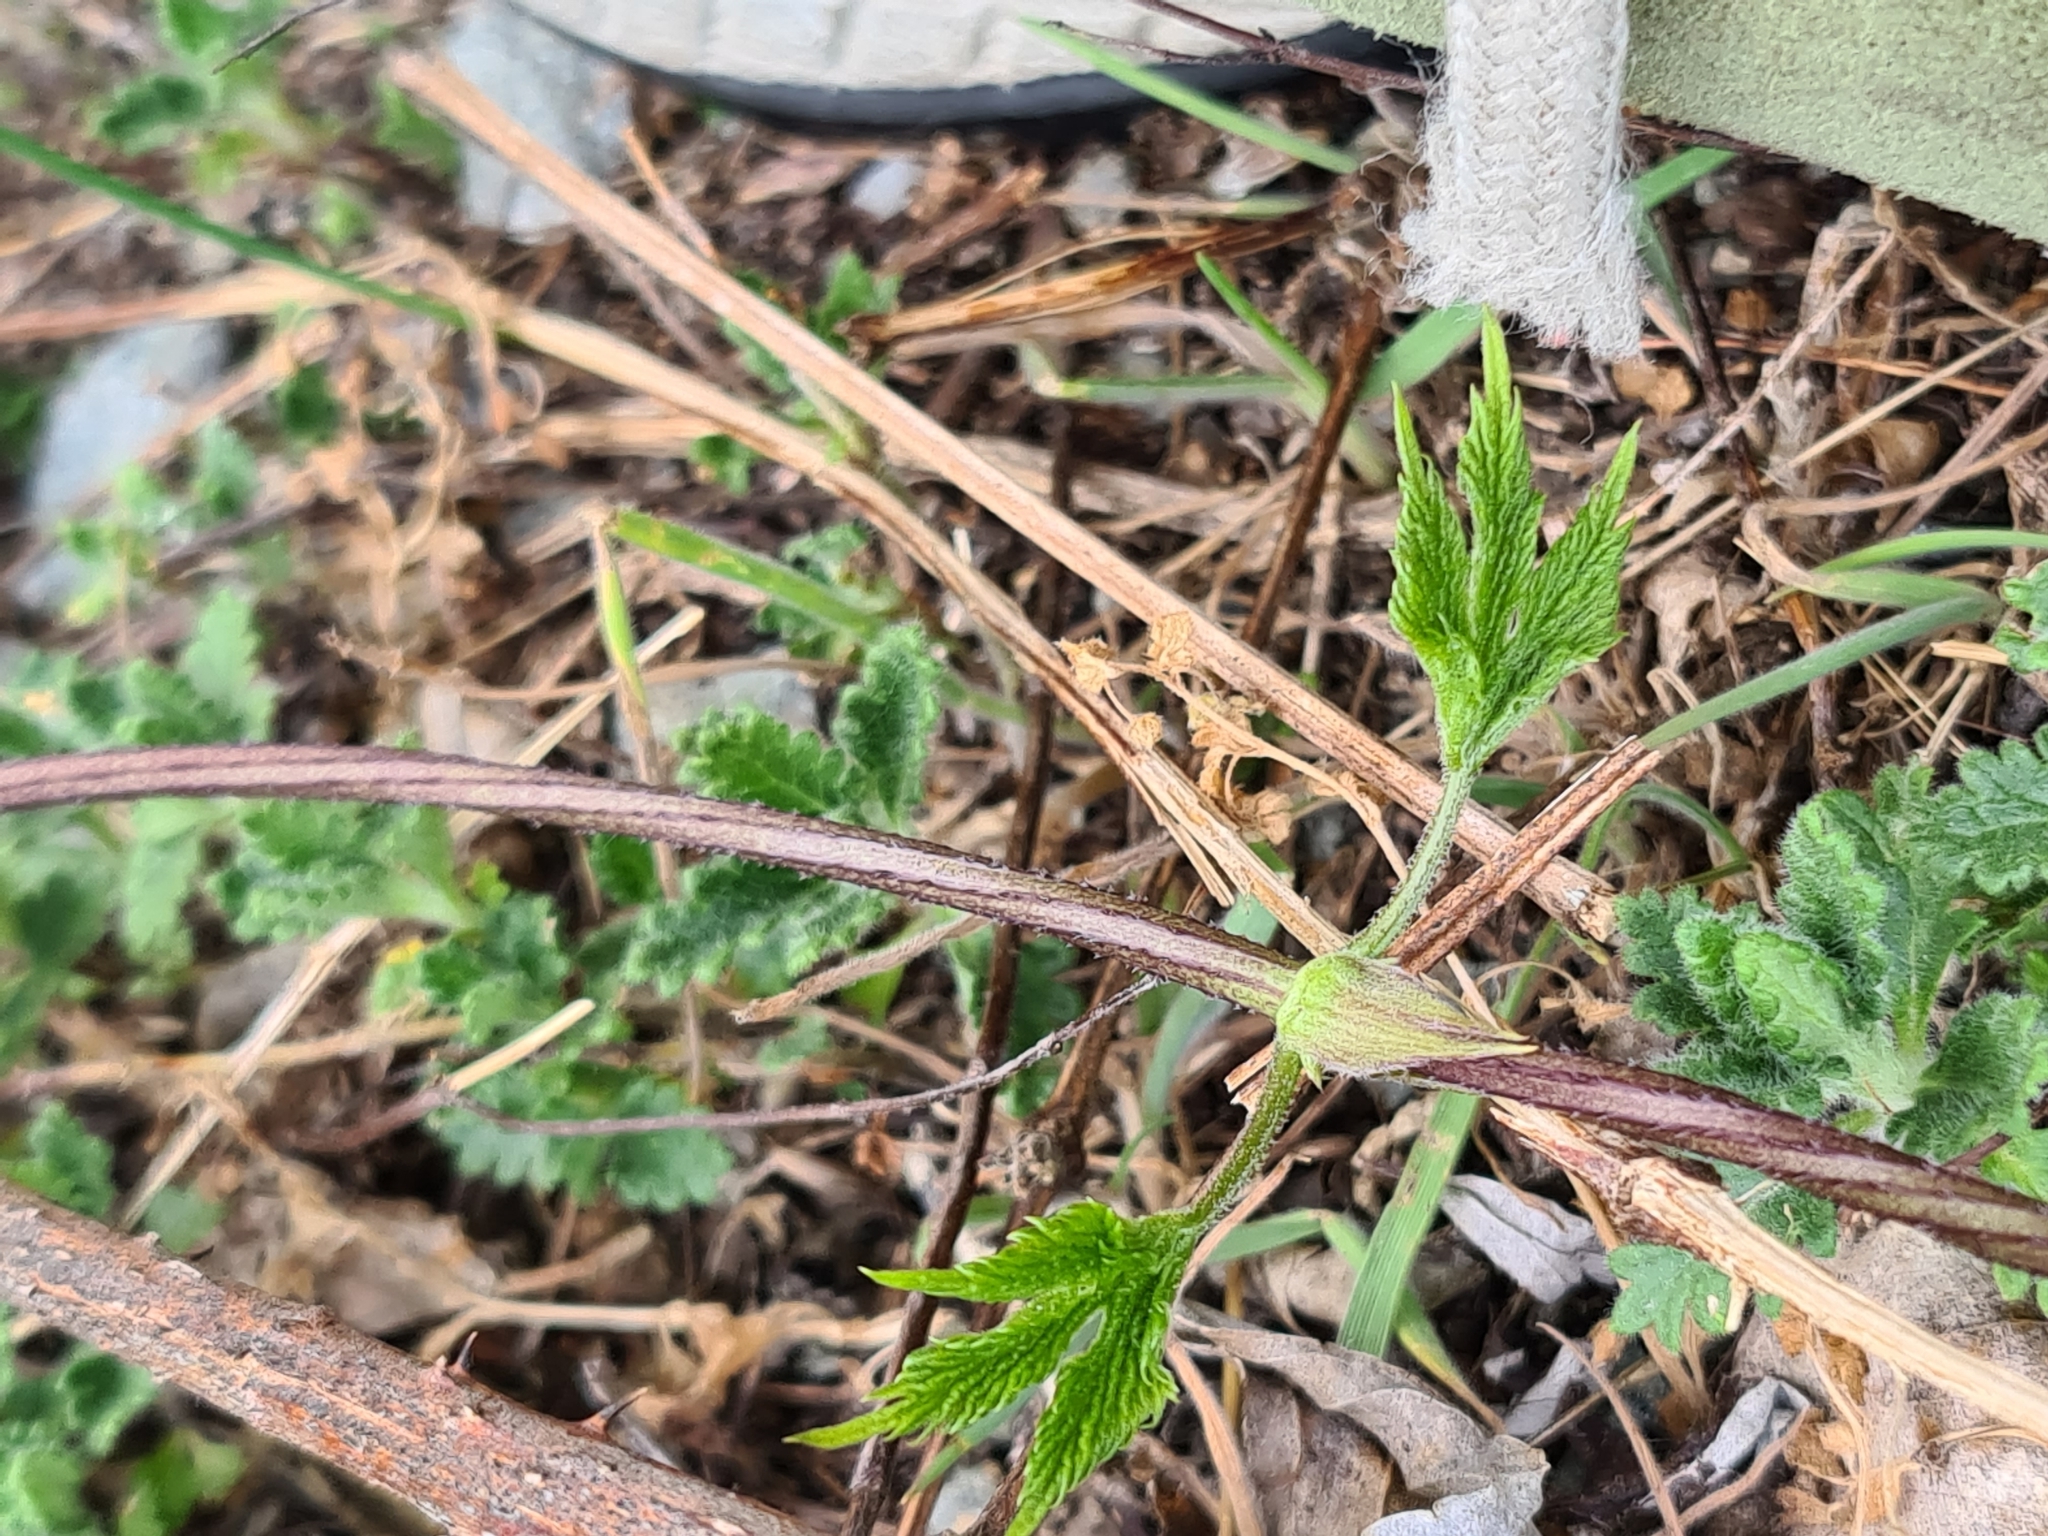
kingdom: Plantae
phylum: Tracheophyta
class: Magnoliopsida
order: Rosales
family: Cannabaceae
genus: Humulus
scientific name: Humulus lupulus
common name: Hop
